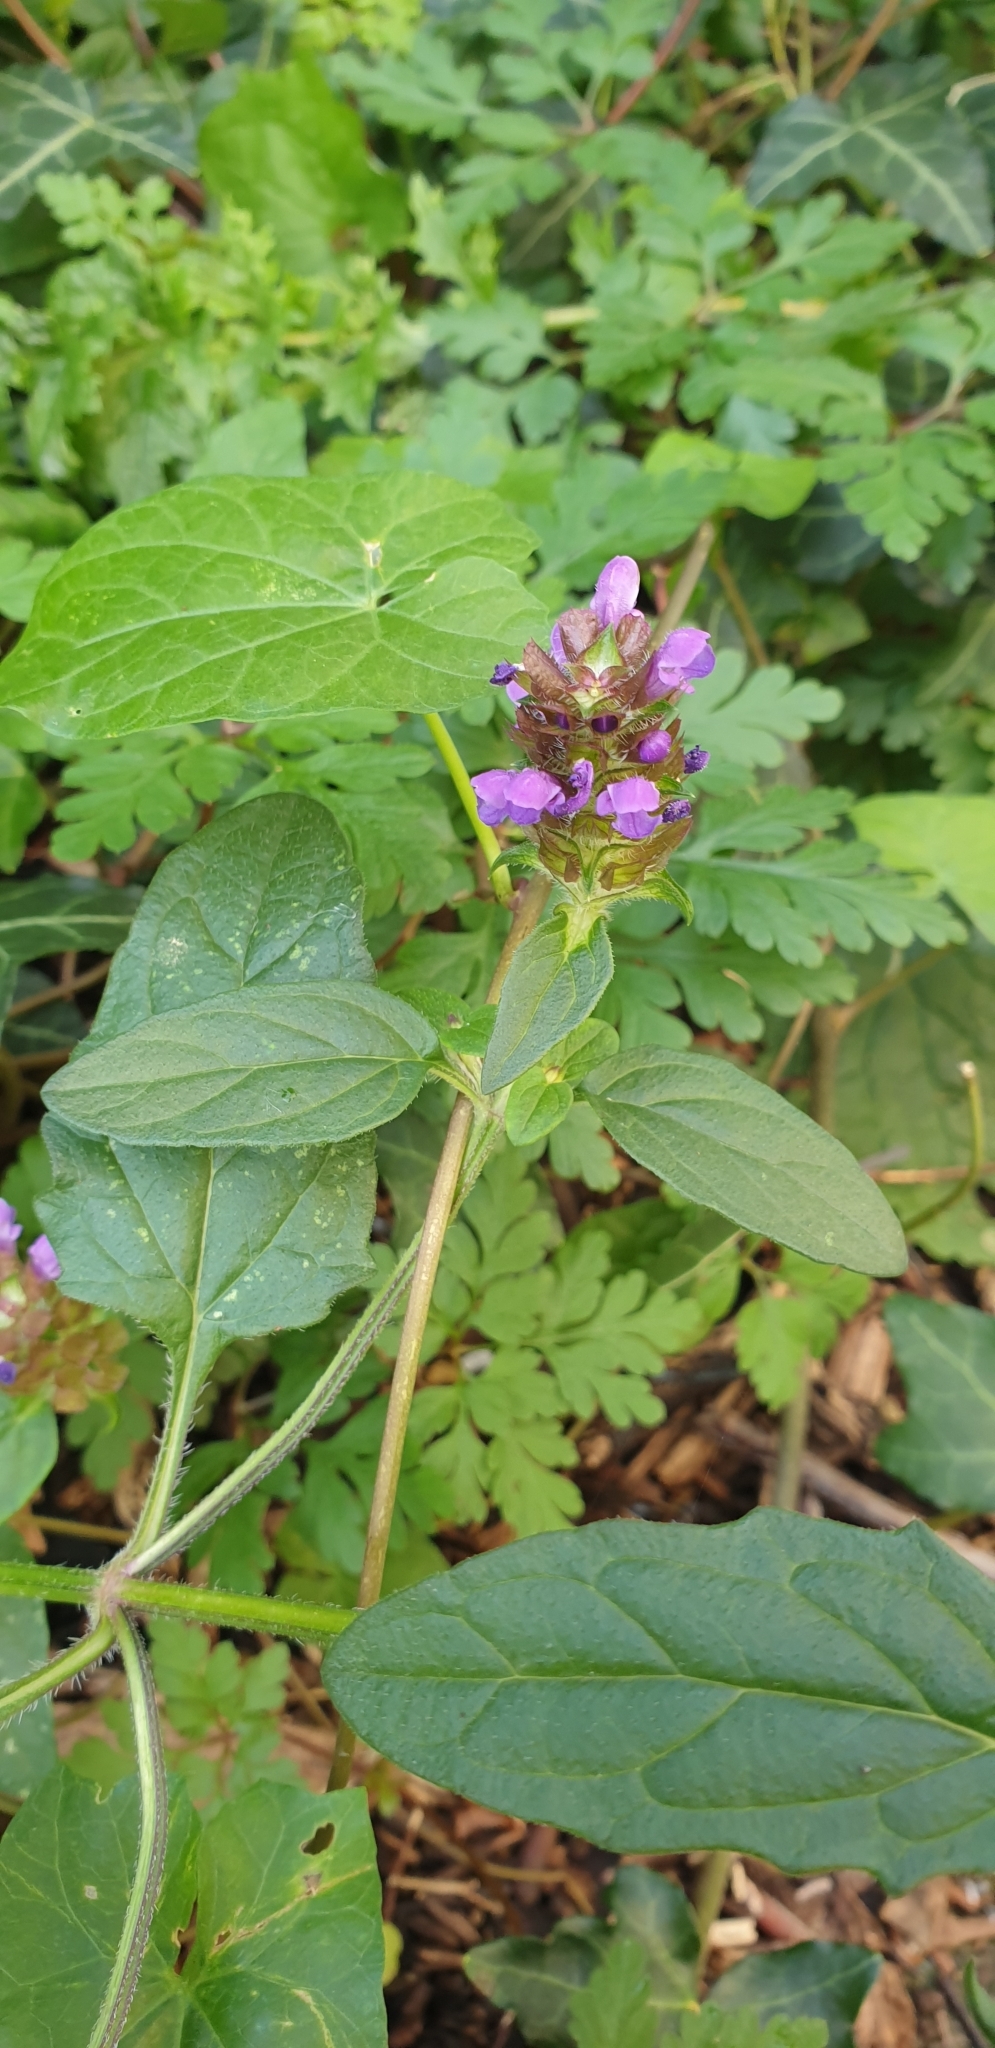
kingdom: Plantae
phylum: Tracheophyta
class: Magnoliopsida
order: Lamiales
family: Lamiaceae
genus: Prunella
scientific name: Prunella vulgaris
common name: Heal-all
